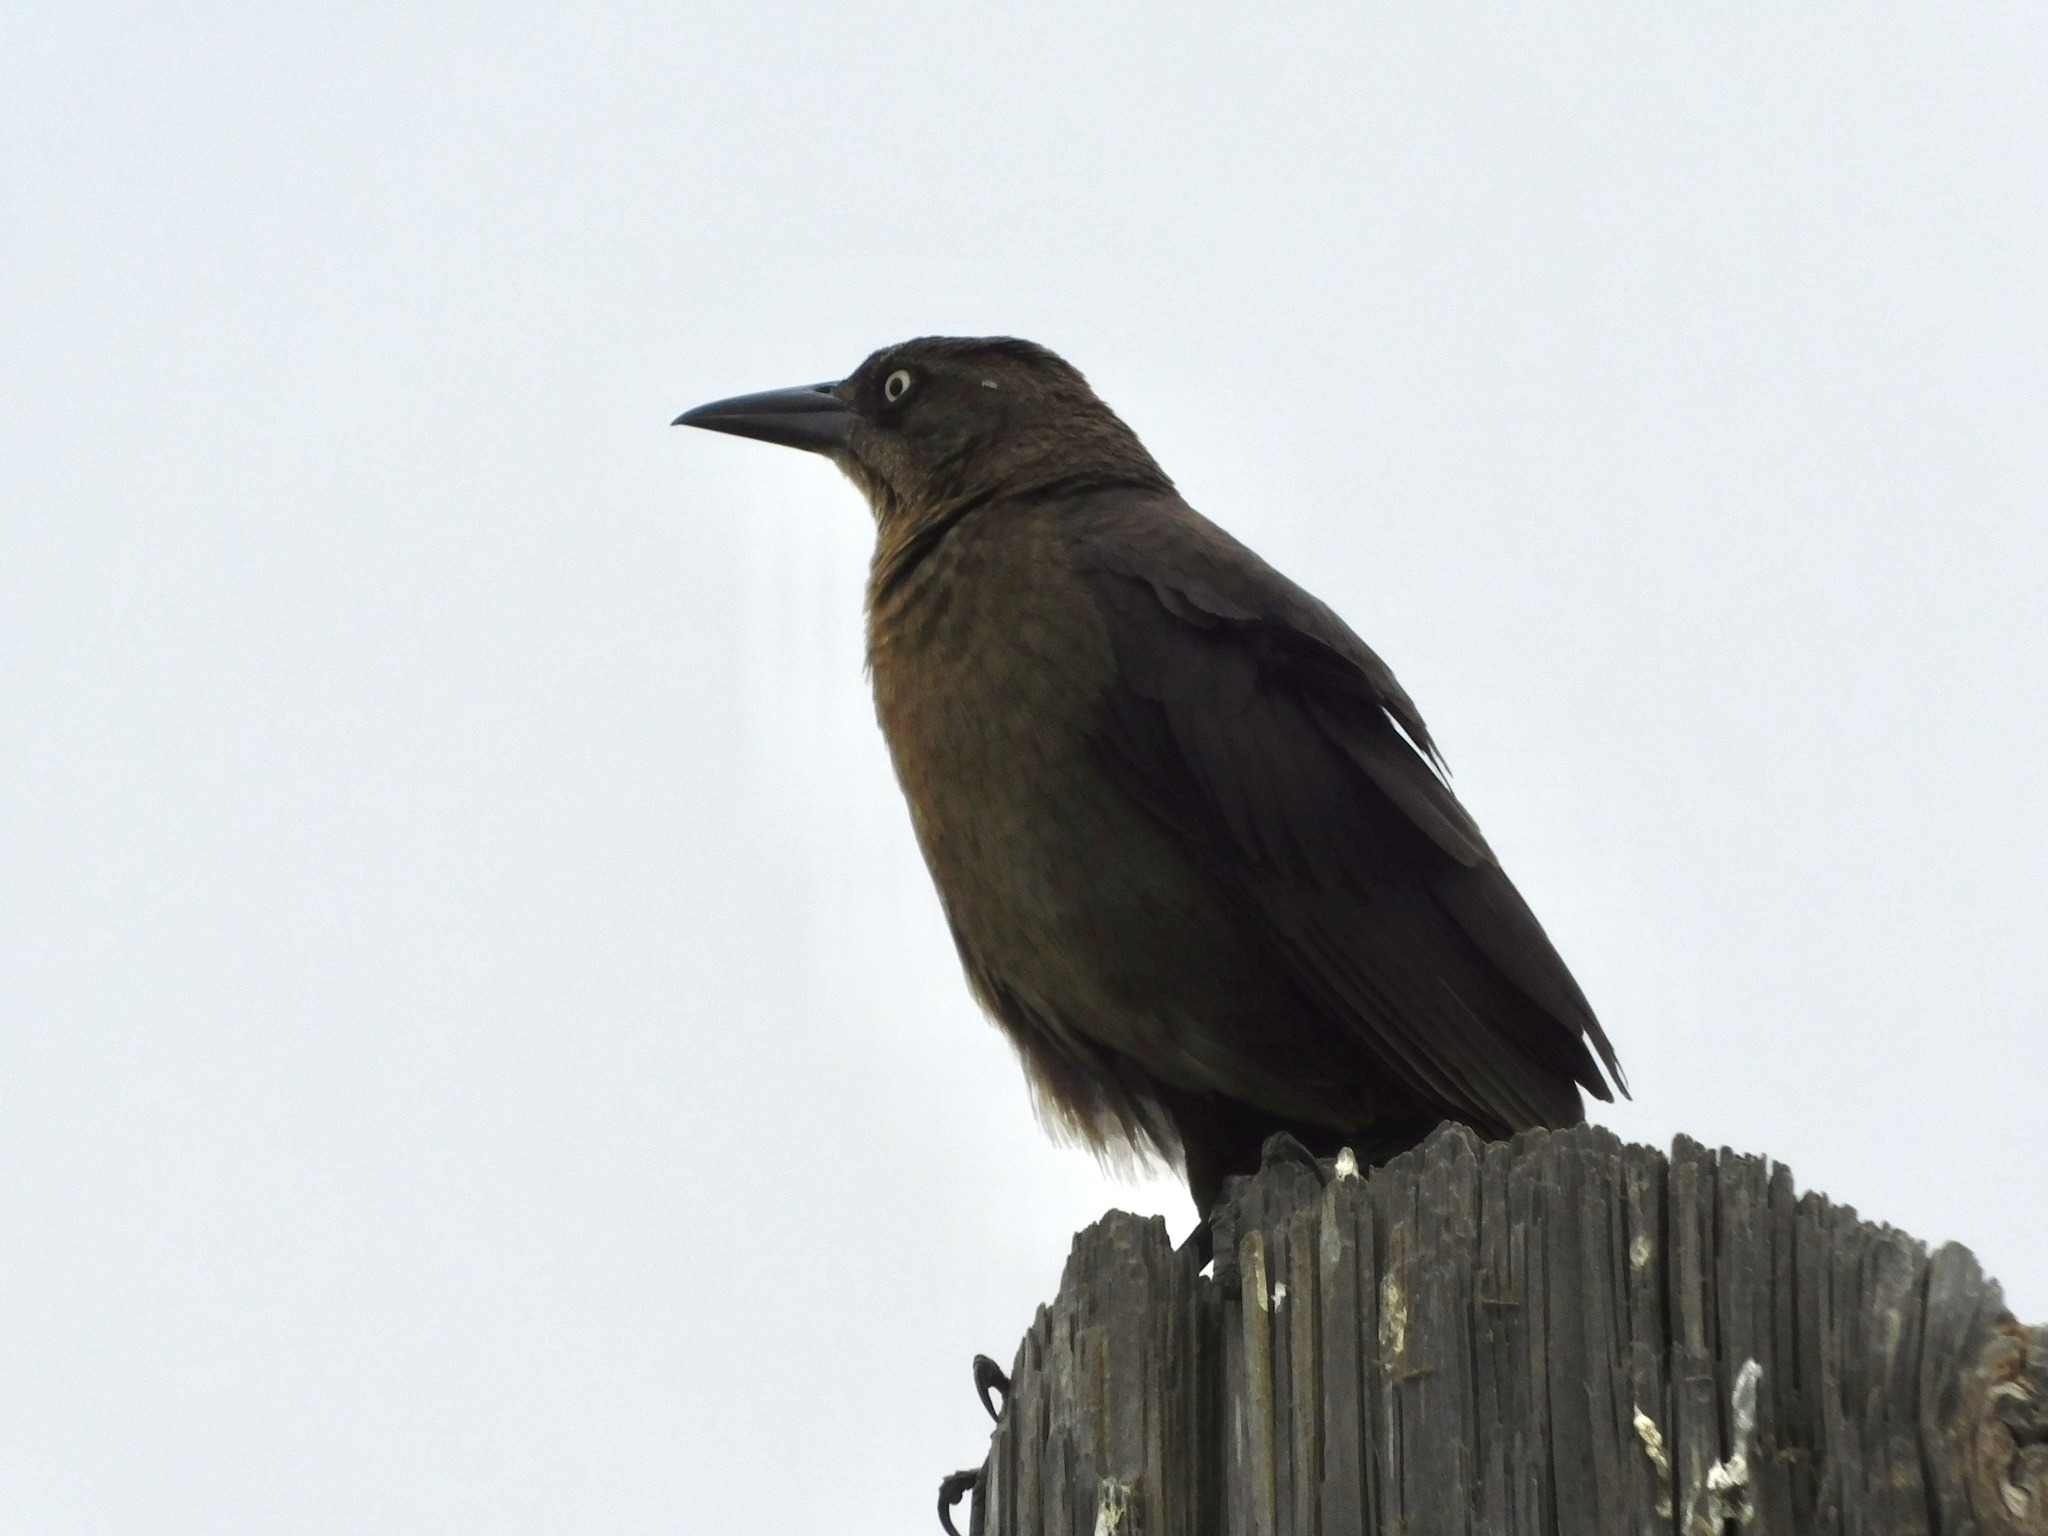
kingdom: Animalia
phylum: Chordata
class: Aves
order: Passeriformes
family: Icteridae
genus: Quiscalus
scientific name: Quiscalus mexicanus
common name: Great-tailed grackle
